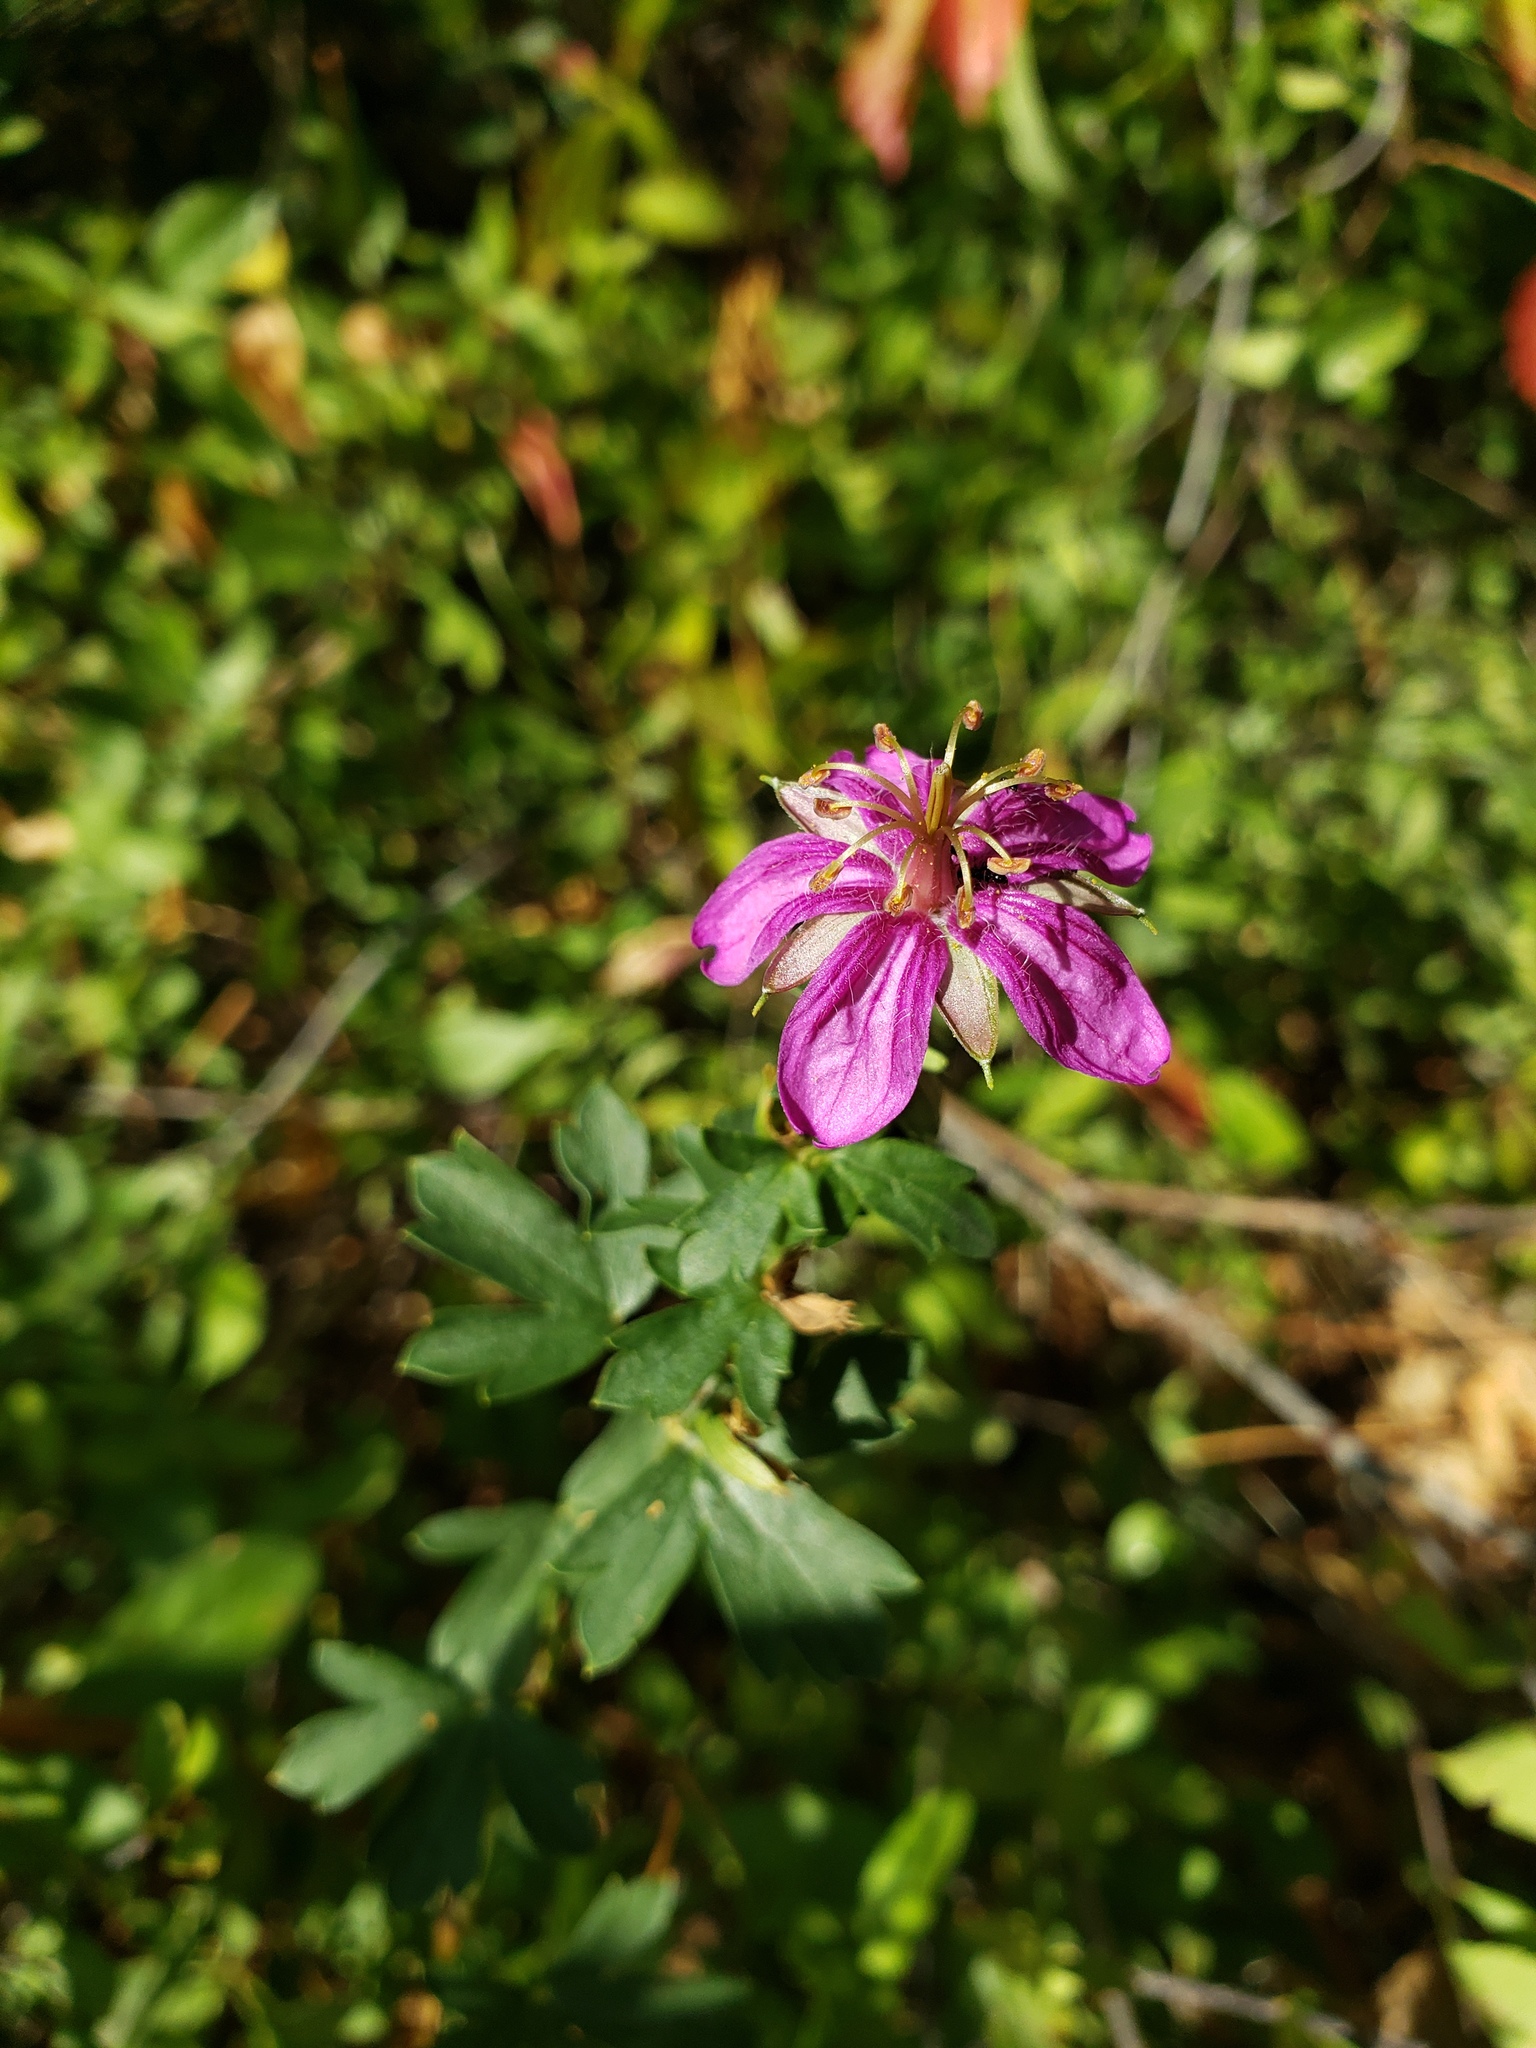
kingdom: Plantae
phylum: Tracheophyta
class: Magnoliopsida
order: Geraniales
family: Geraniaceae
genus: Geranium
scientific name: Geranium caespitosum
